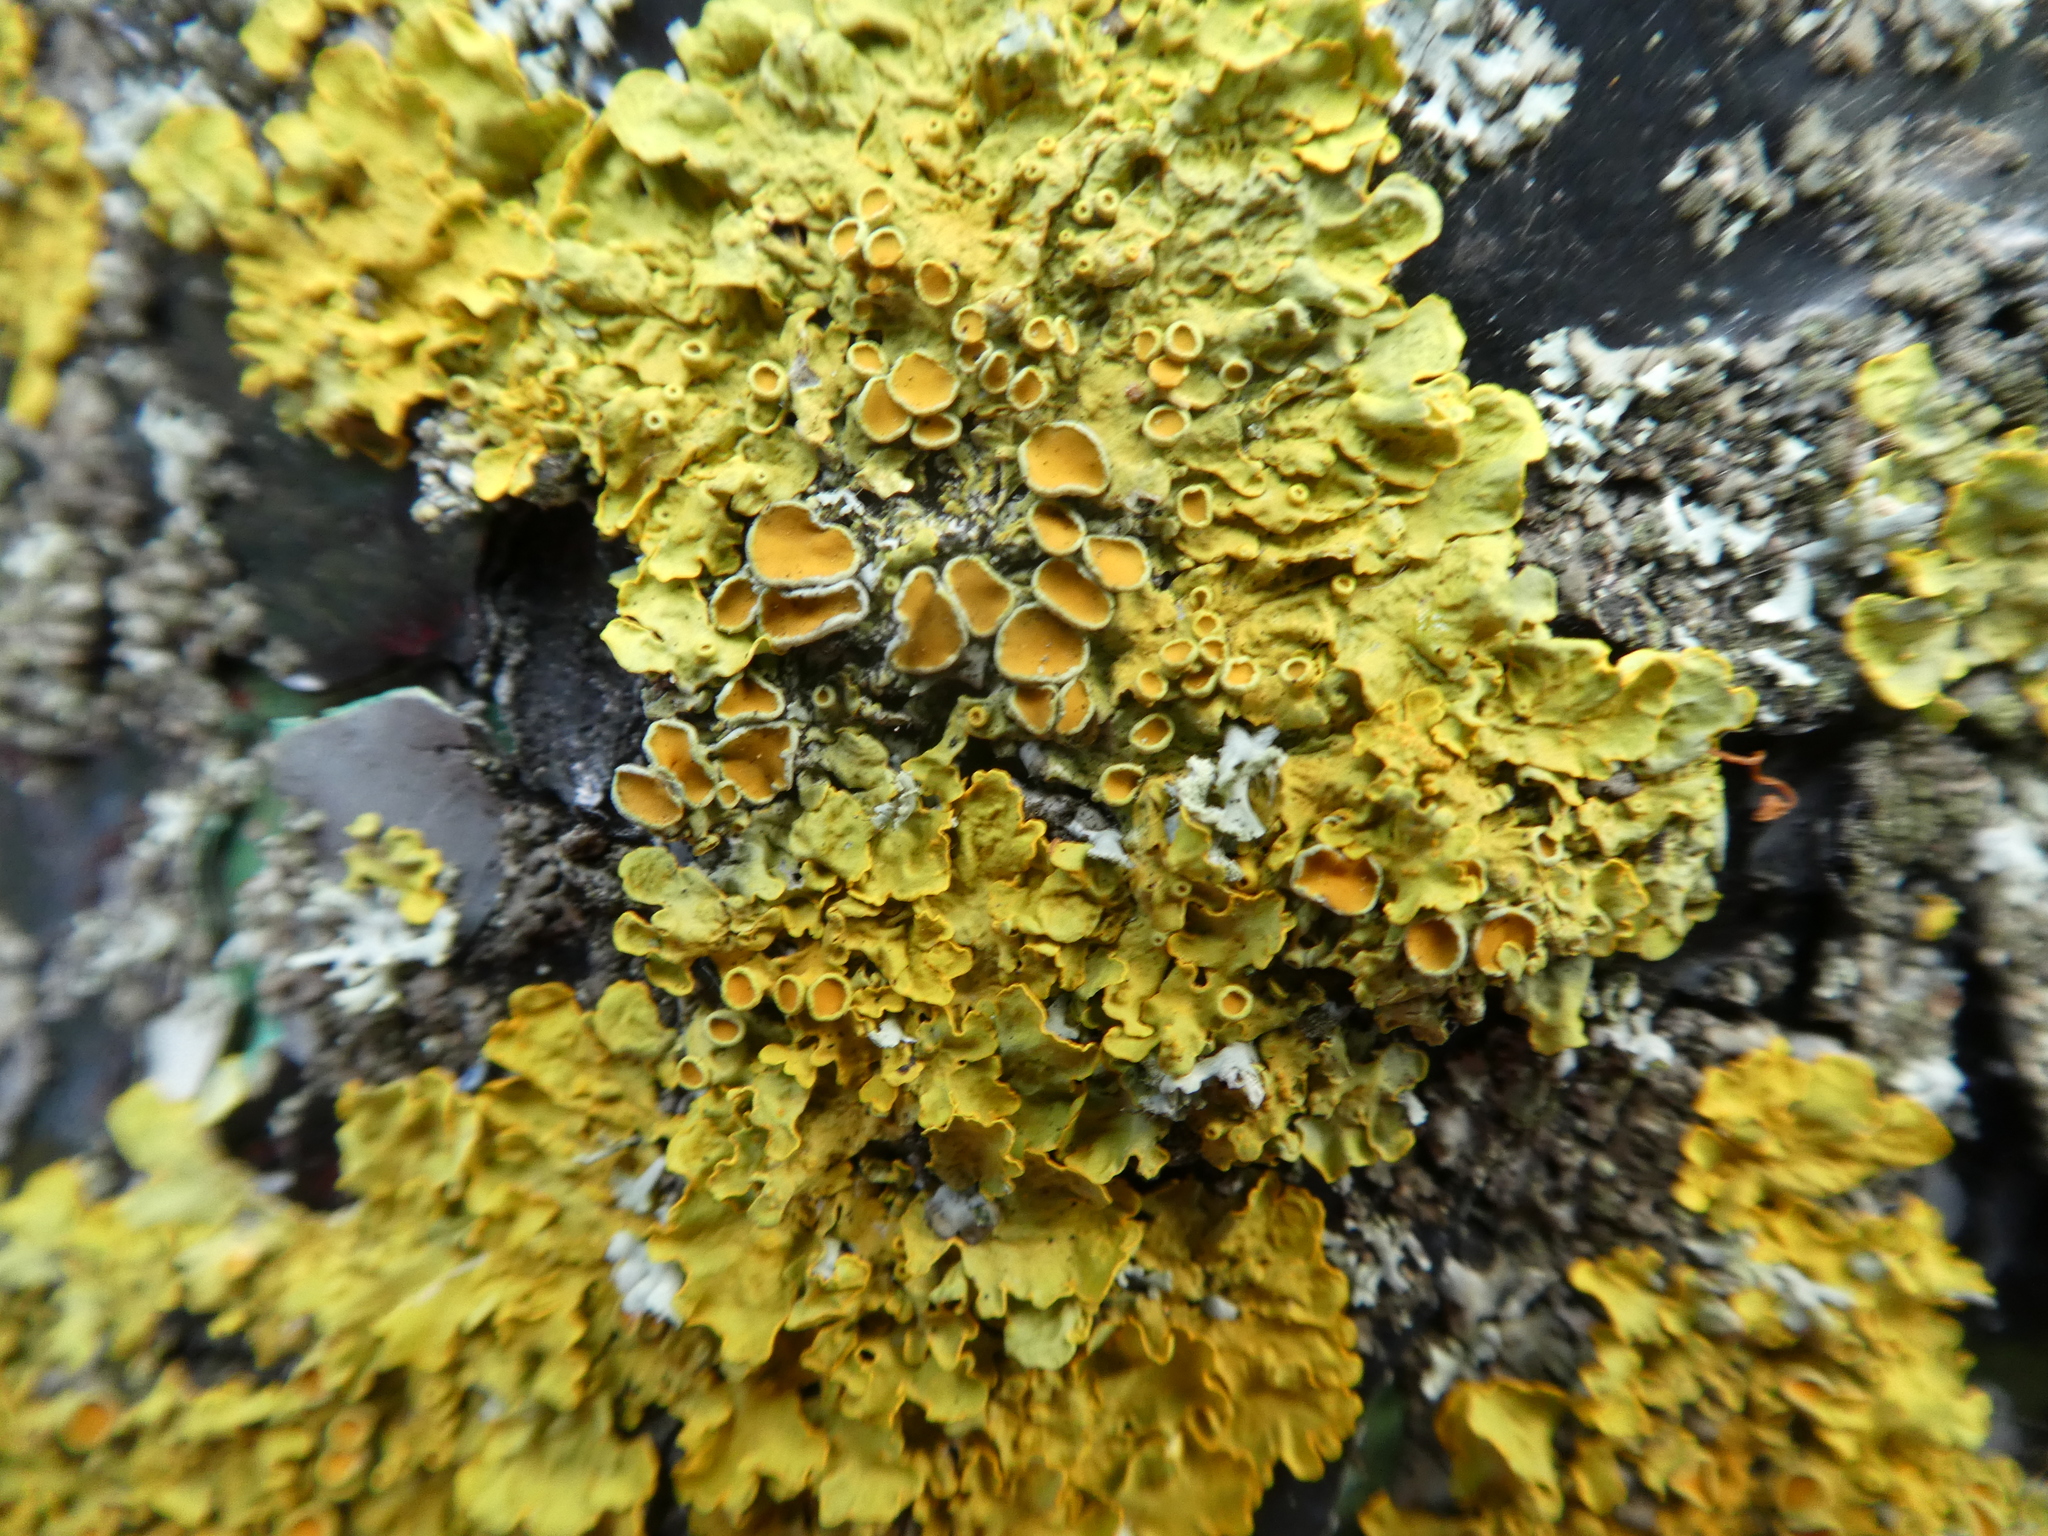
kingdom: Fungi
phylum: Ascomycota
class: Lecanoromycetes
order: Teloschistales
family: Teloschistaceae
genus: Xanthoria
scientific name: Xanthoria parietina
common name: Common orange lichen
